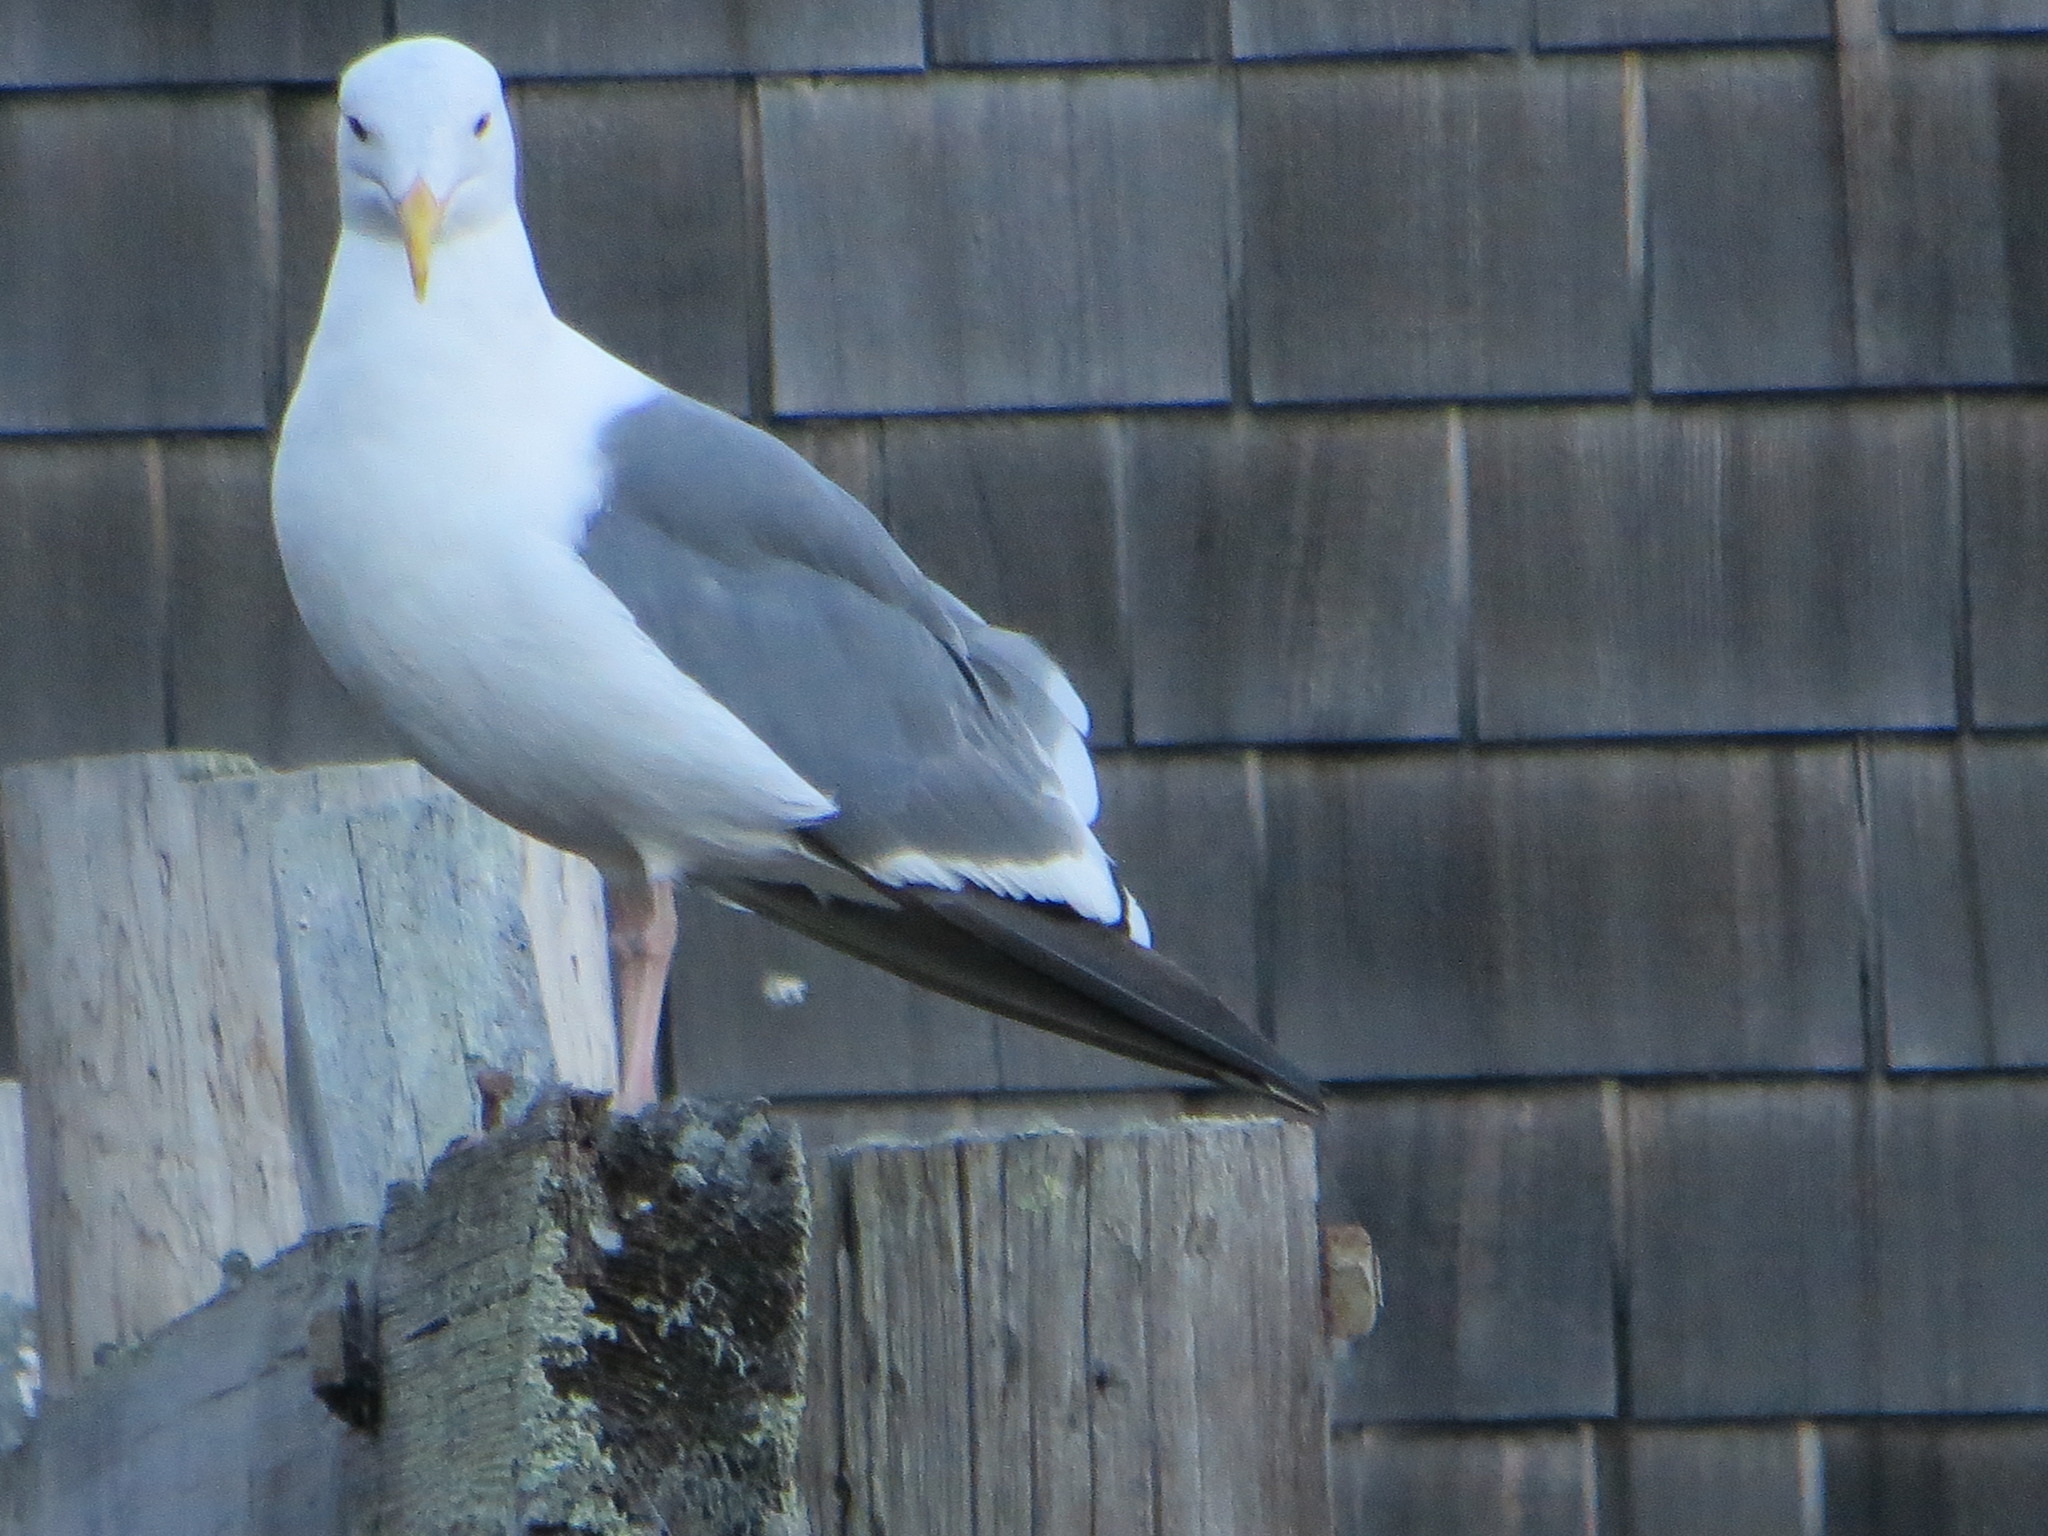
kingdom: Animalia
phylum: Chordata
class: Aves
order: Charadriiformes
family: Laridae
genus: Larus
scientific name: Larus occidentalis
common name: Western gull
